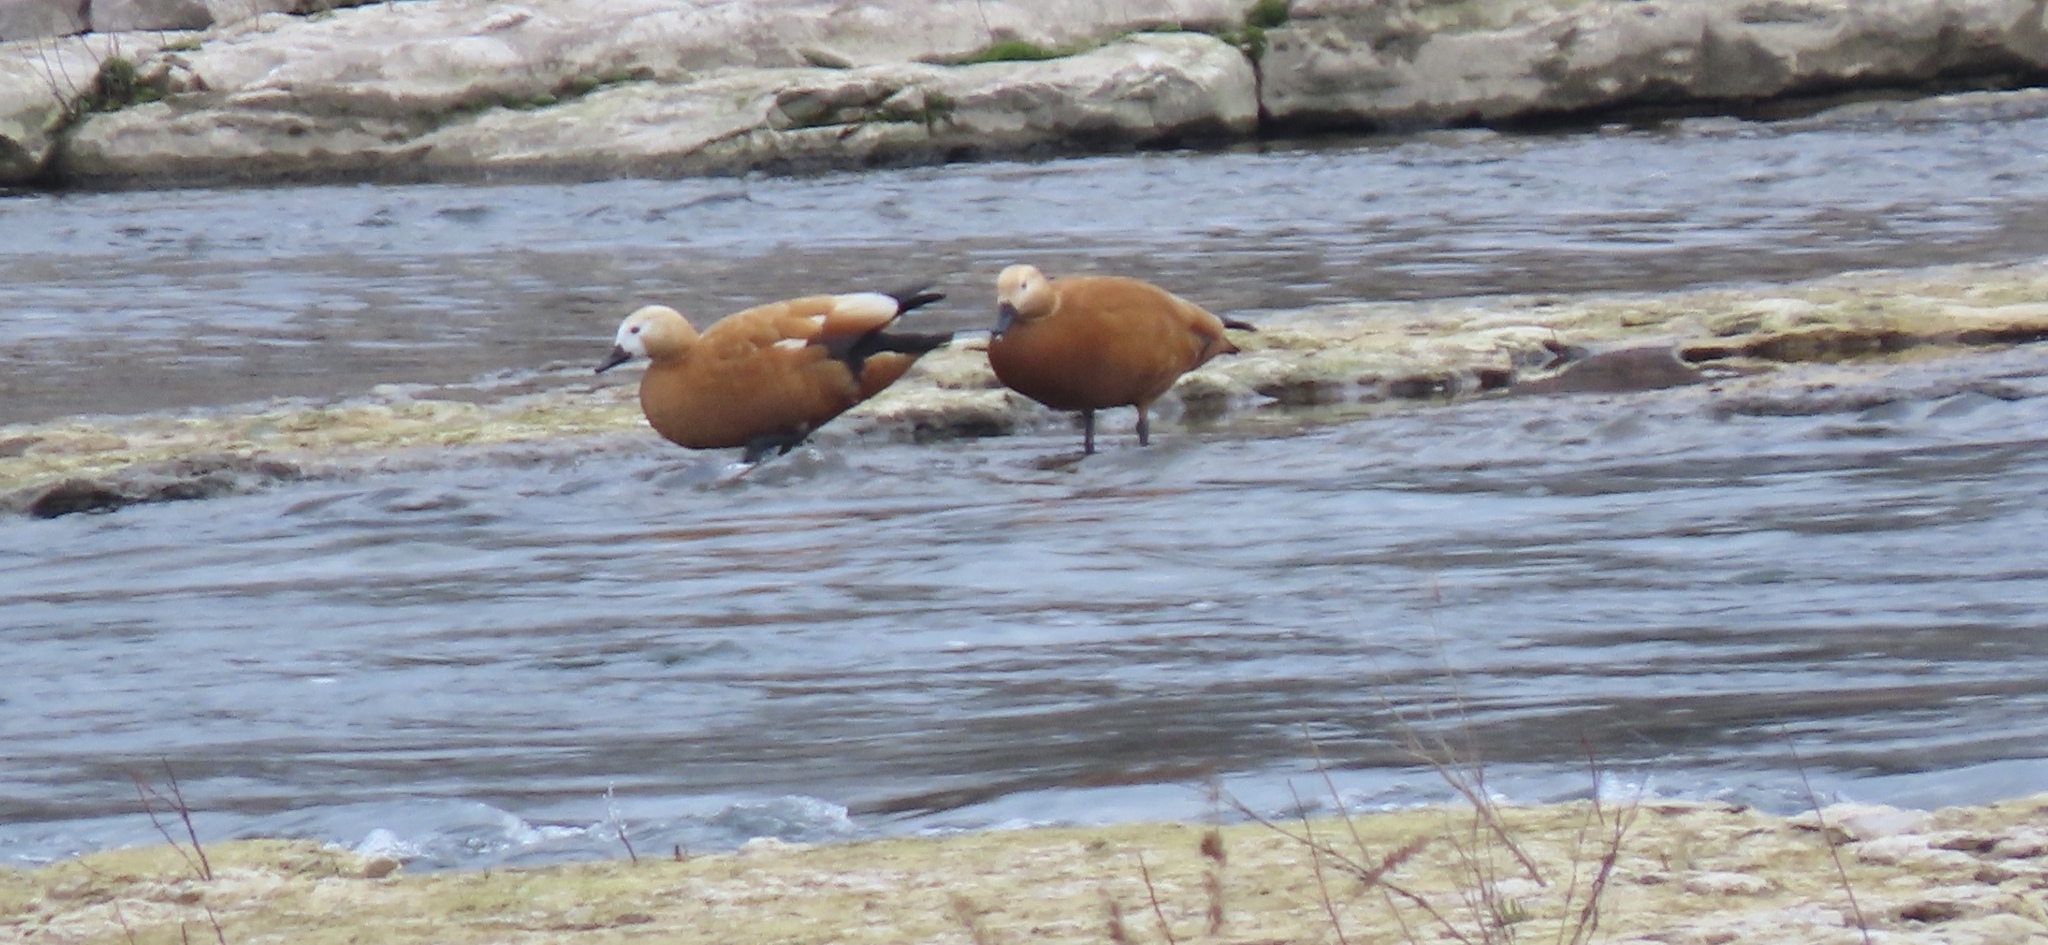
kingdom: Animalia
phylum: Chordata
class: Aves
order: Anseriformes
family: Anatidae
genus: Tadorna
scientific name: Tadorna ferruginea
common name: Ruddy shelduck
